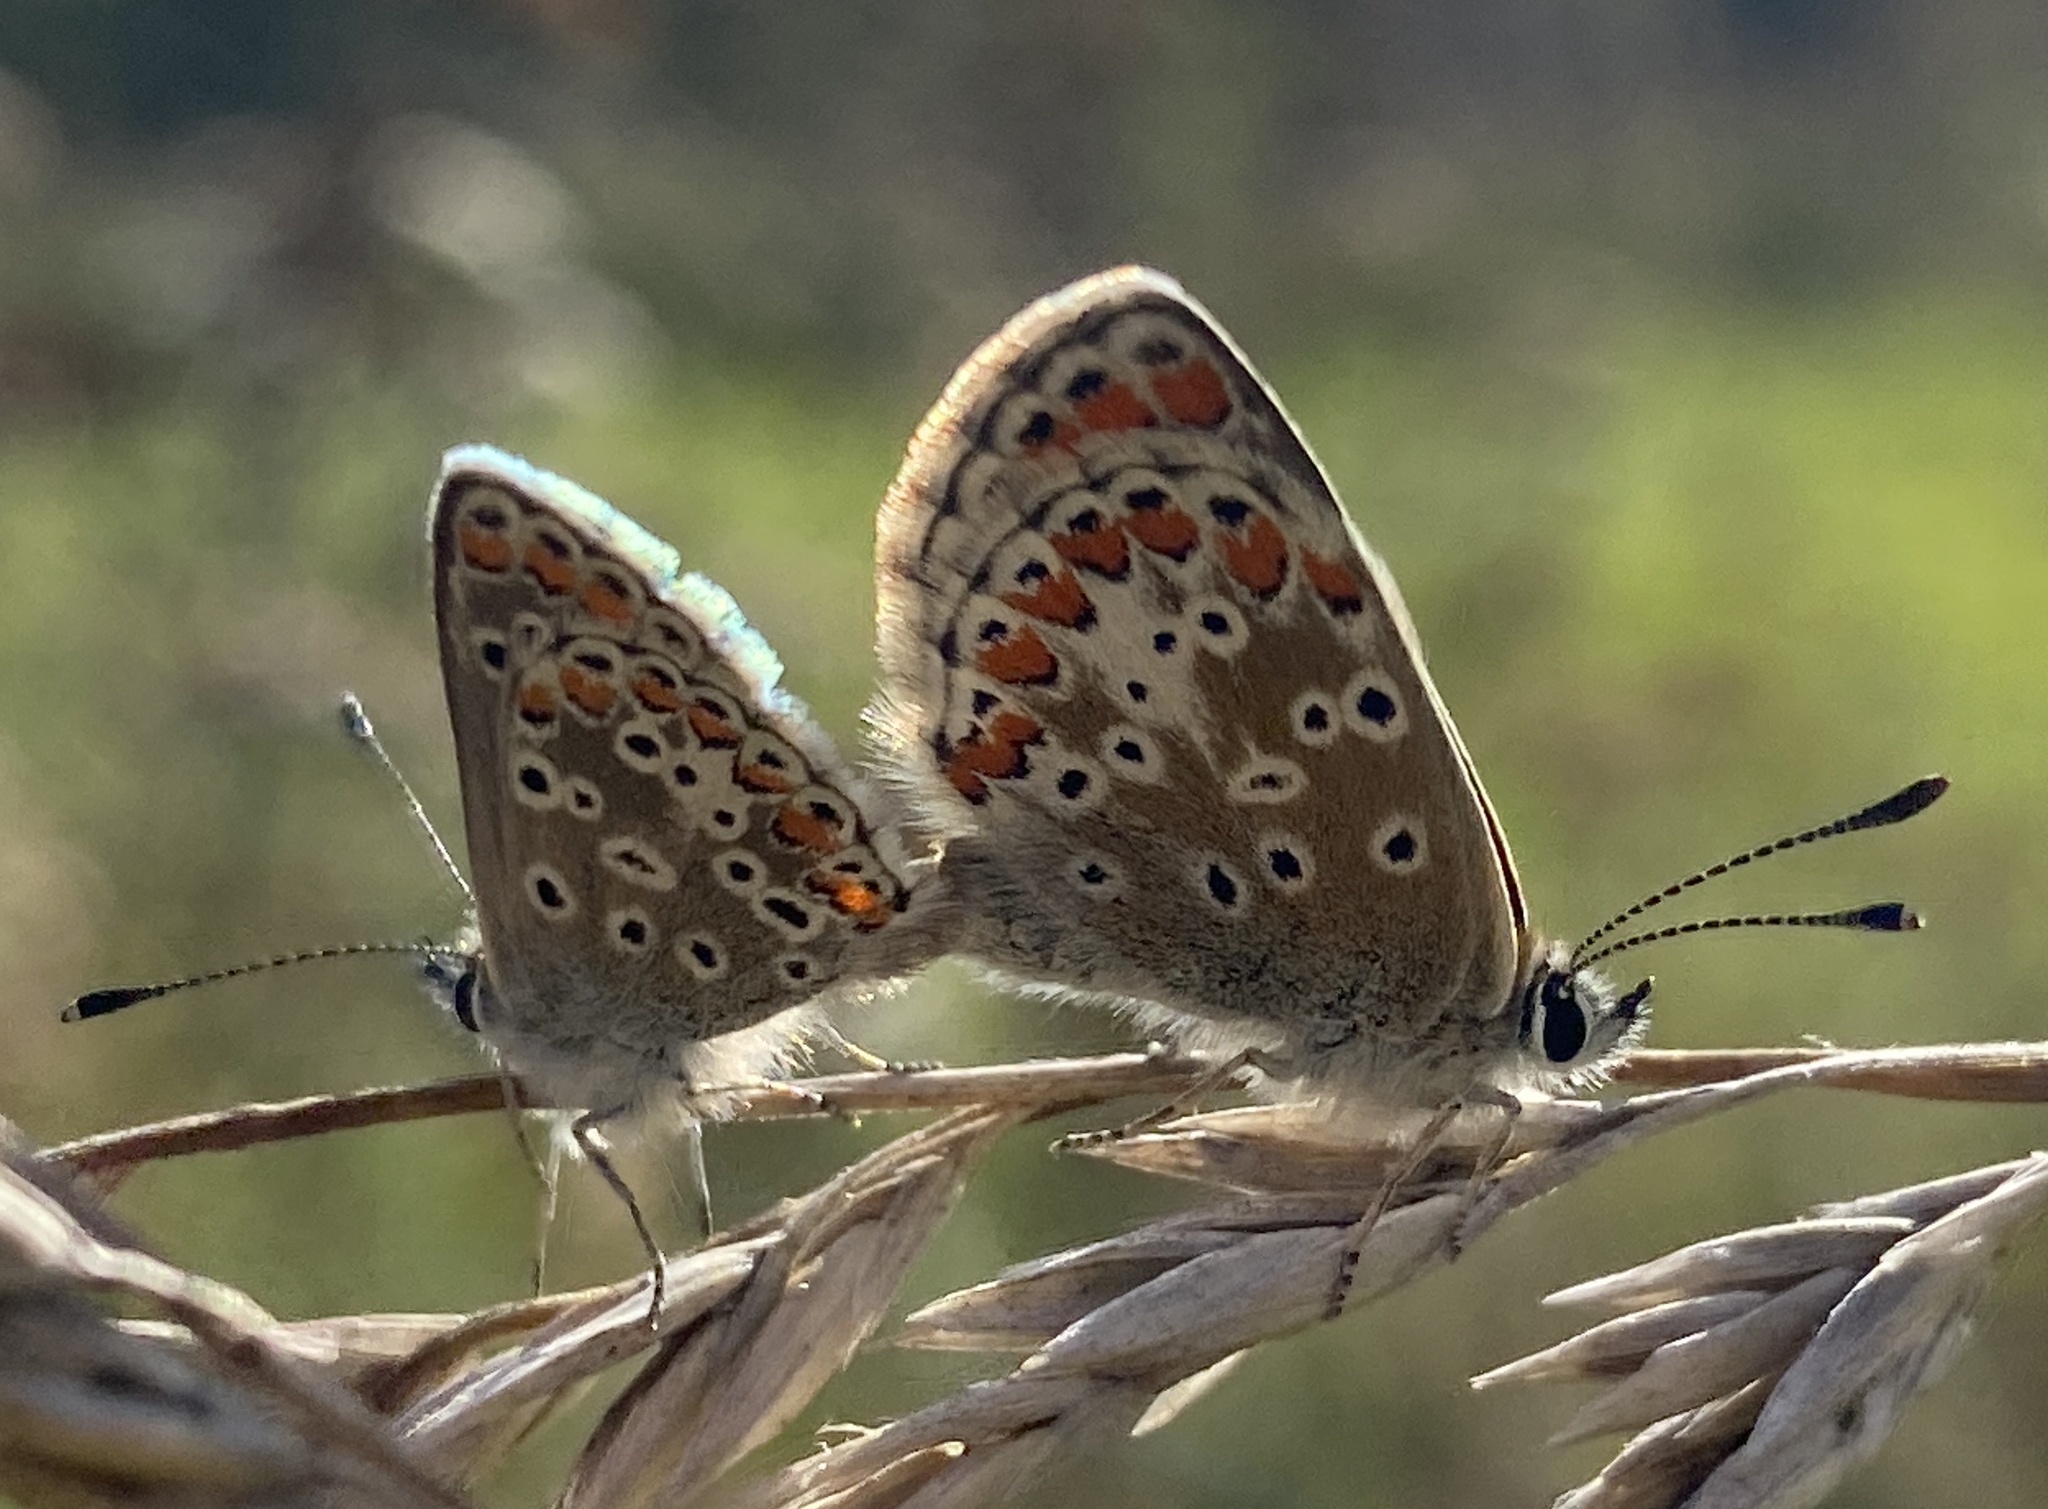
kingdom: Animalia
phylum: Arthropoda
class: Insecta
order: Lepidoptera
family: Lycaenidae
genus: Aricia
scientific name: Aricia agestis
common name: Brown argus
